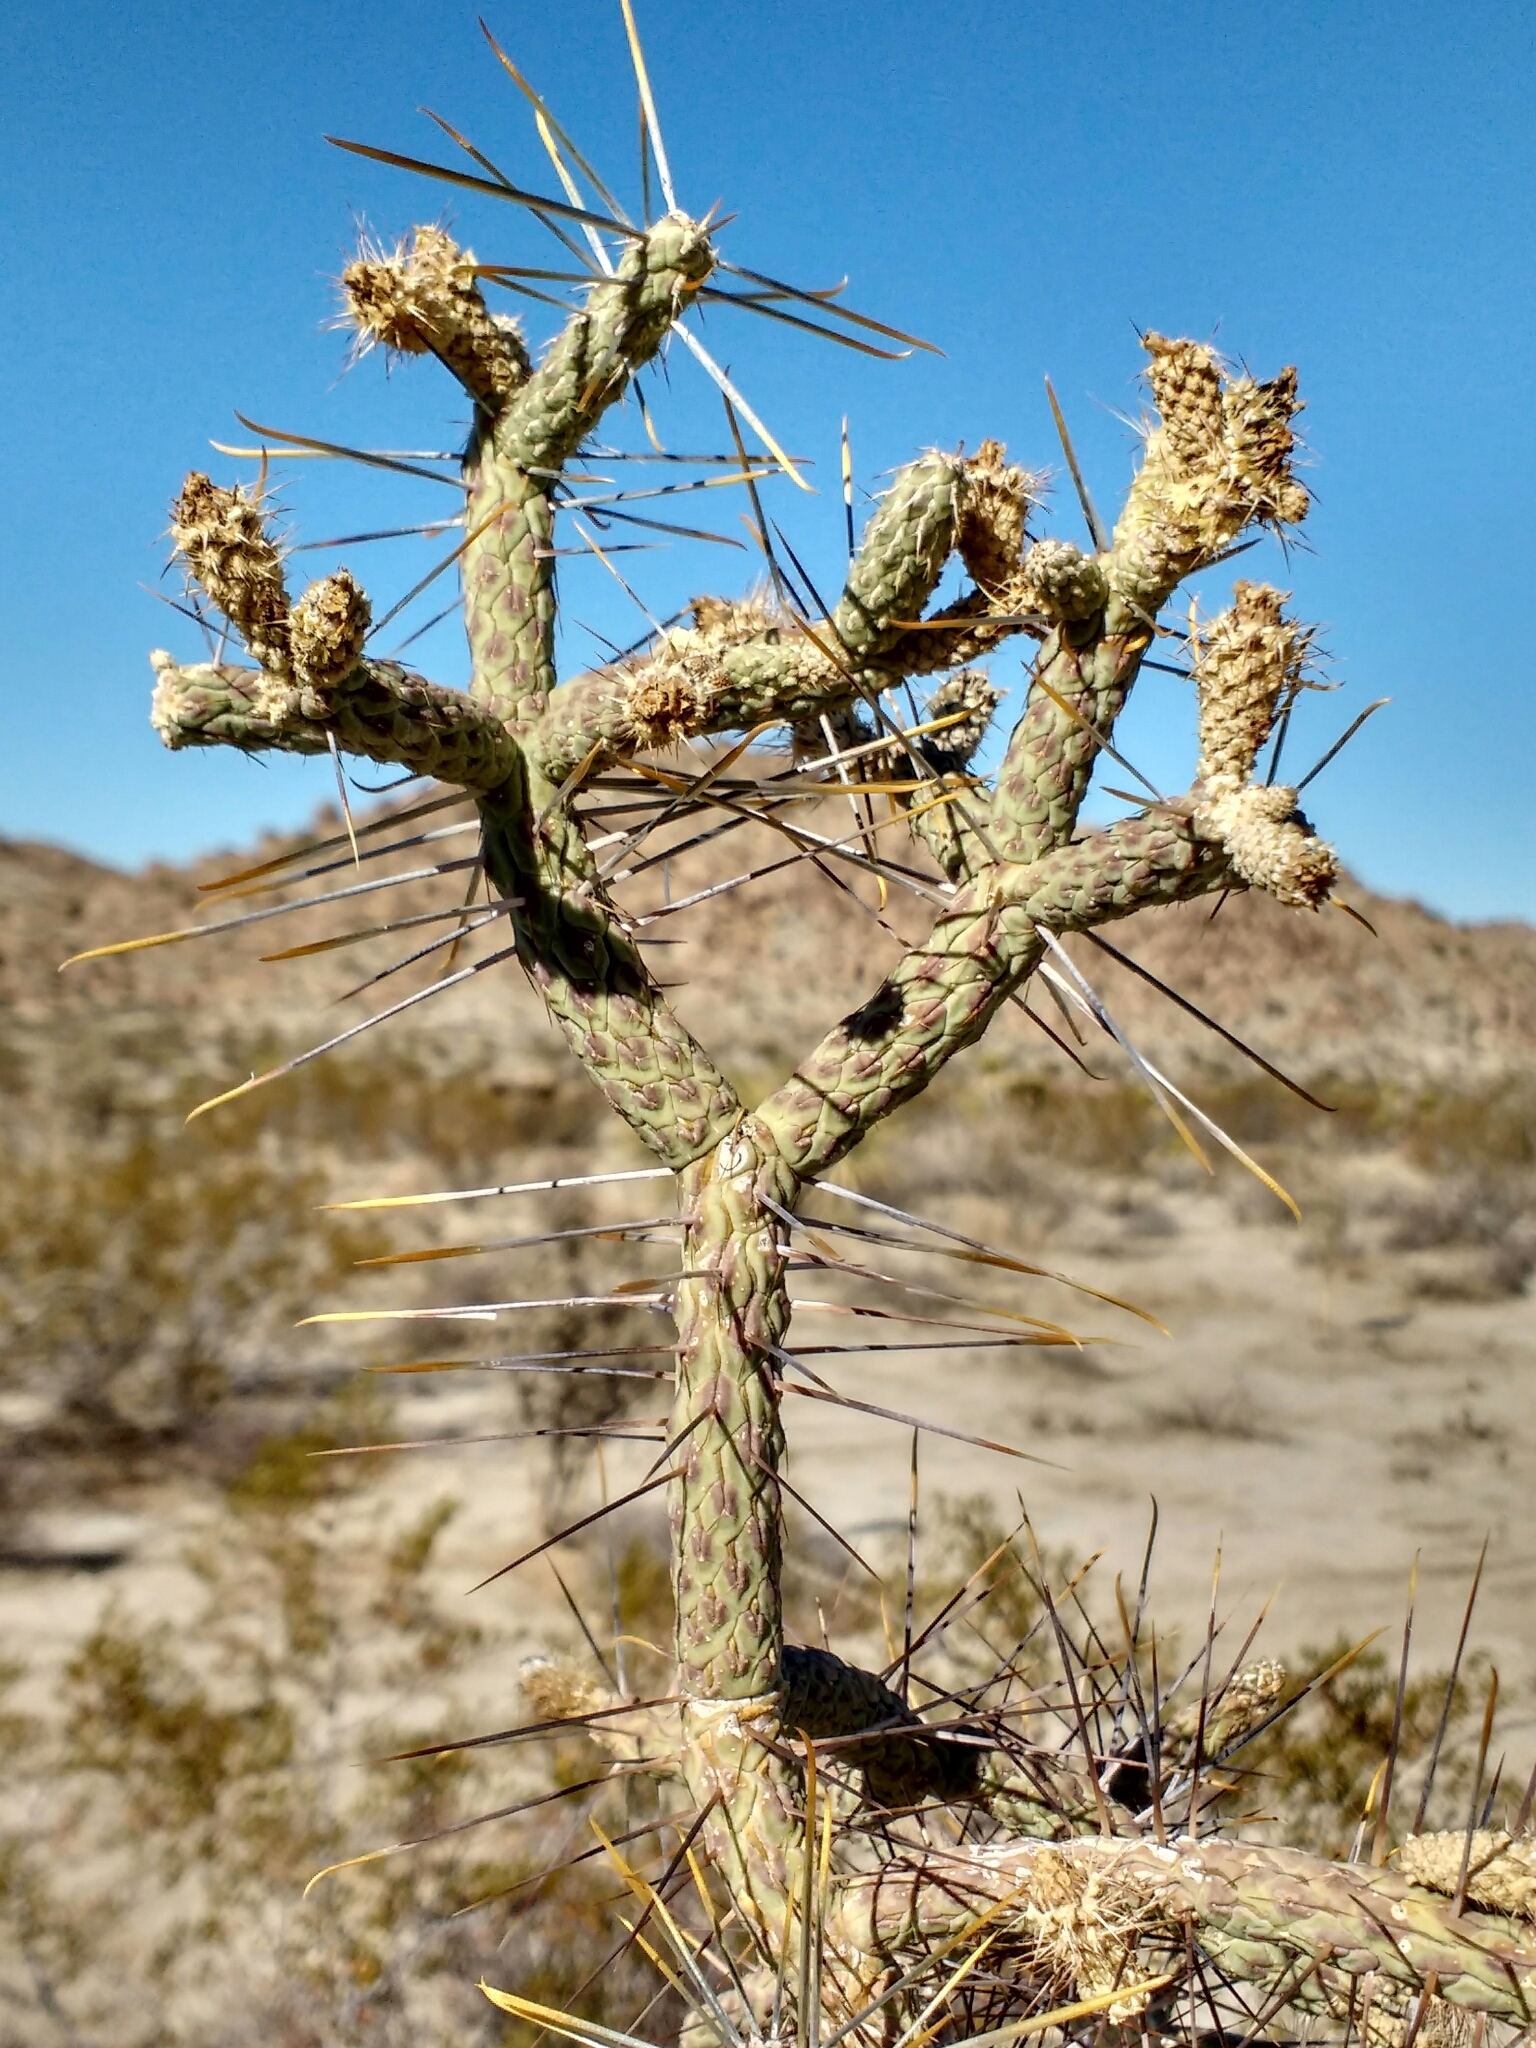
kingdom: Plantae
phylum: Tracheophyta
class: Magnoliopsida
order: Caryophyllales
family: Cactaceae
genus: Cylindropuntia
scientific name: Cylindropuntia ramosissima
